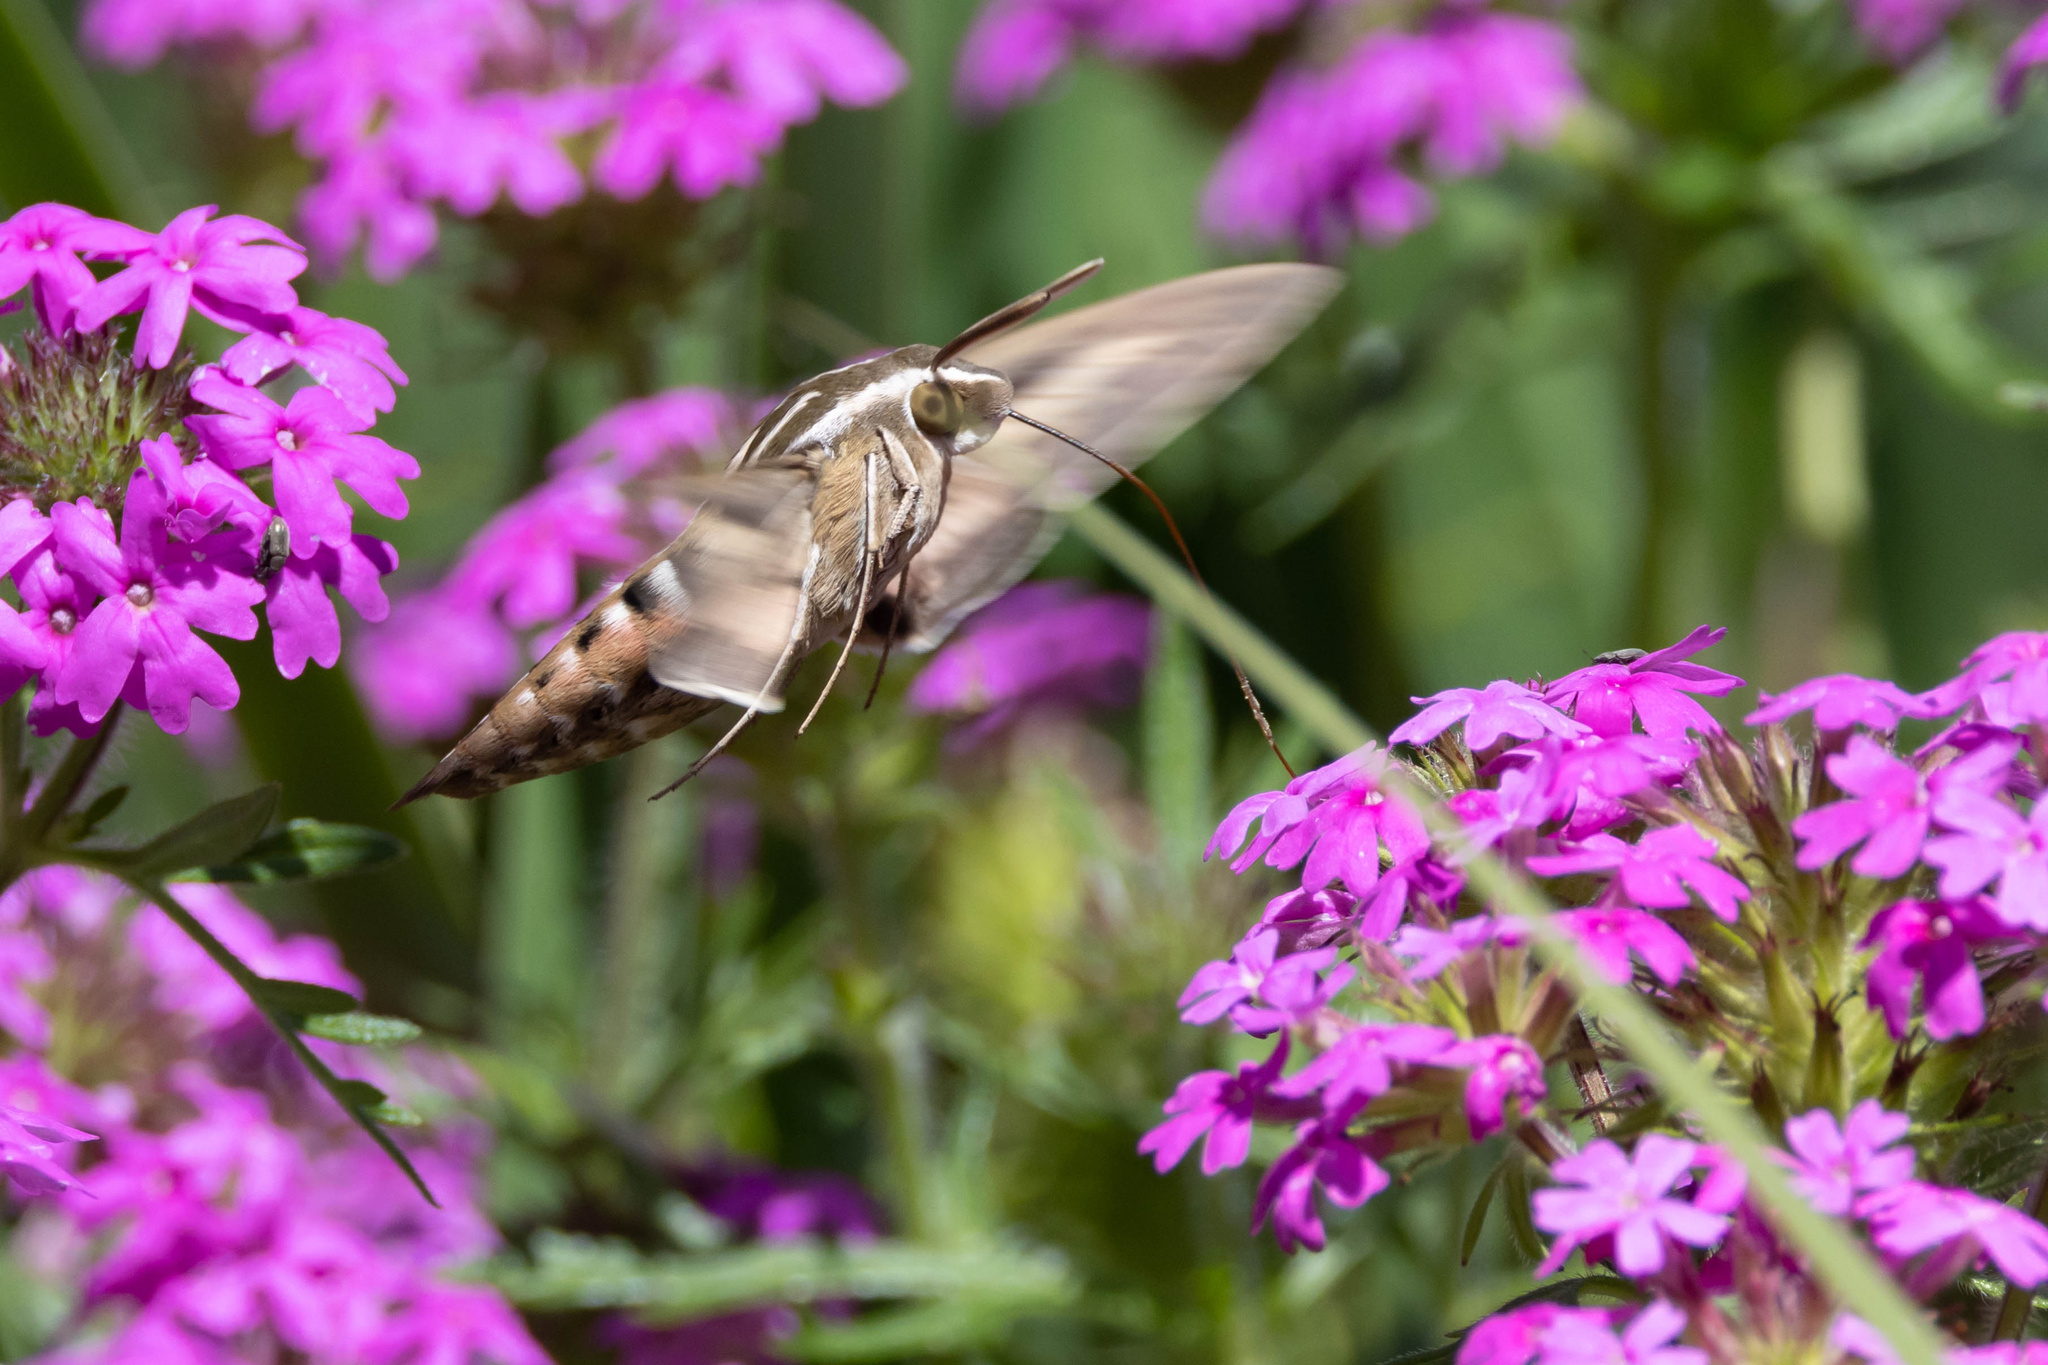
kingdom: Animalia
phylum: Arthropoda
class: Insecta
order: Lepidoptera
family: Sphingidae
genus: Hyles
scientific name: Hyles lineata
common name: White-lined sphinx
